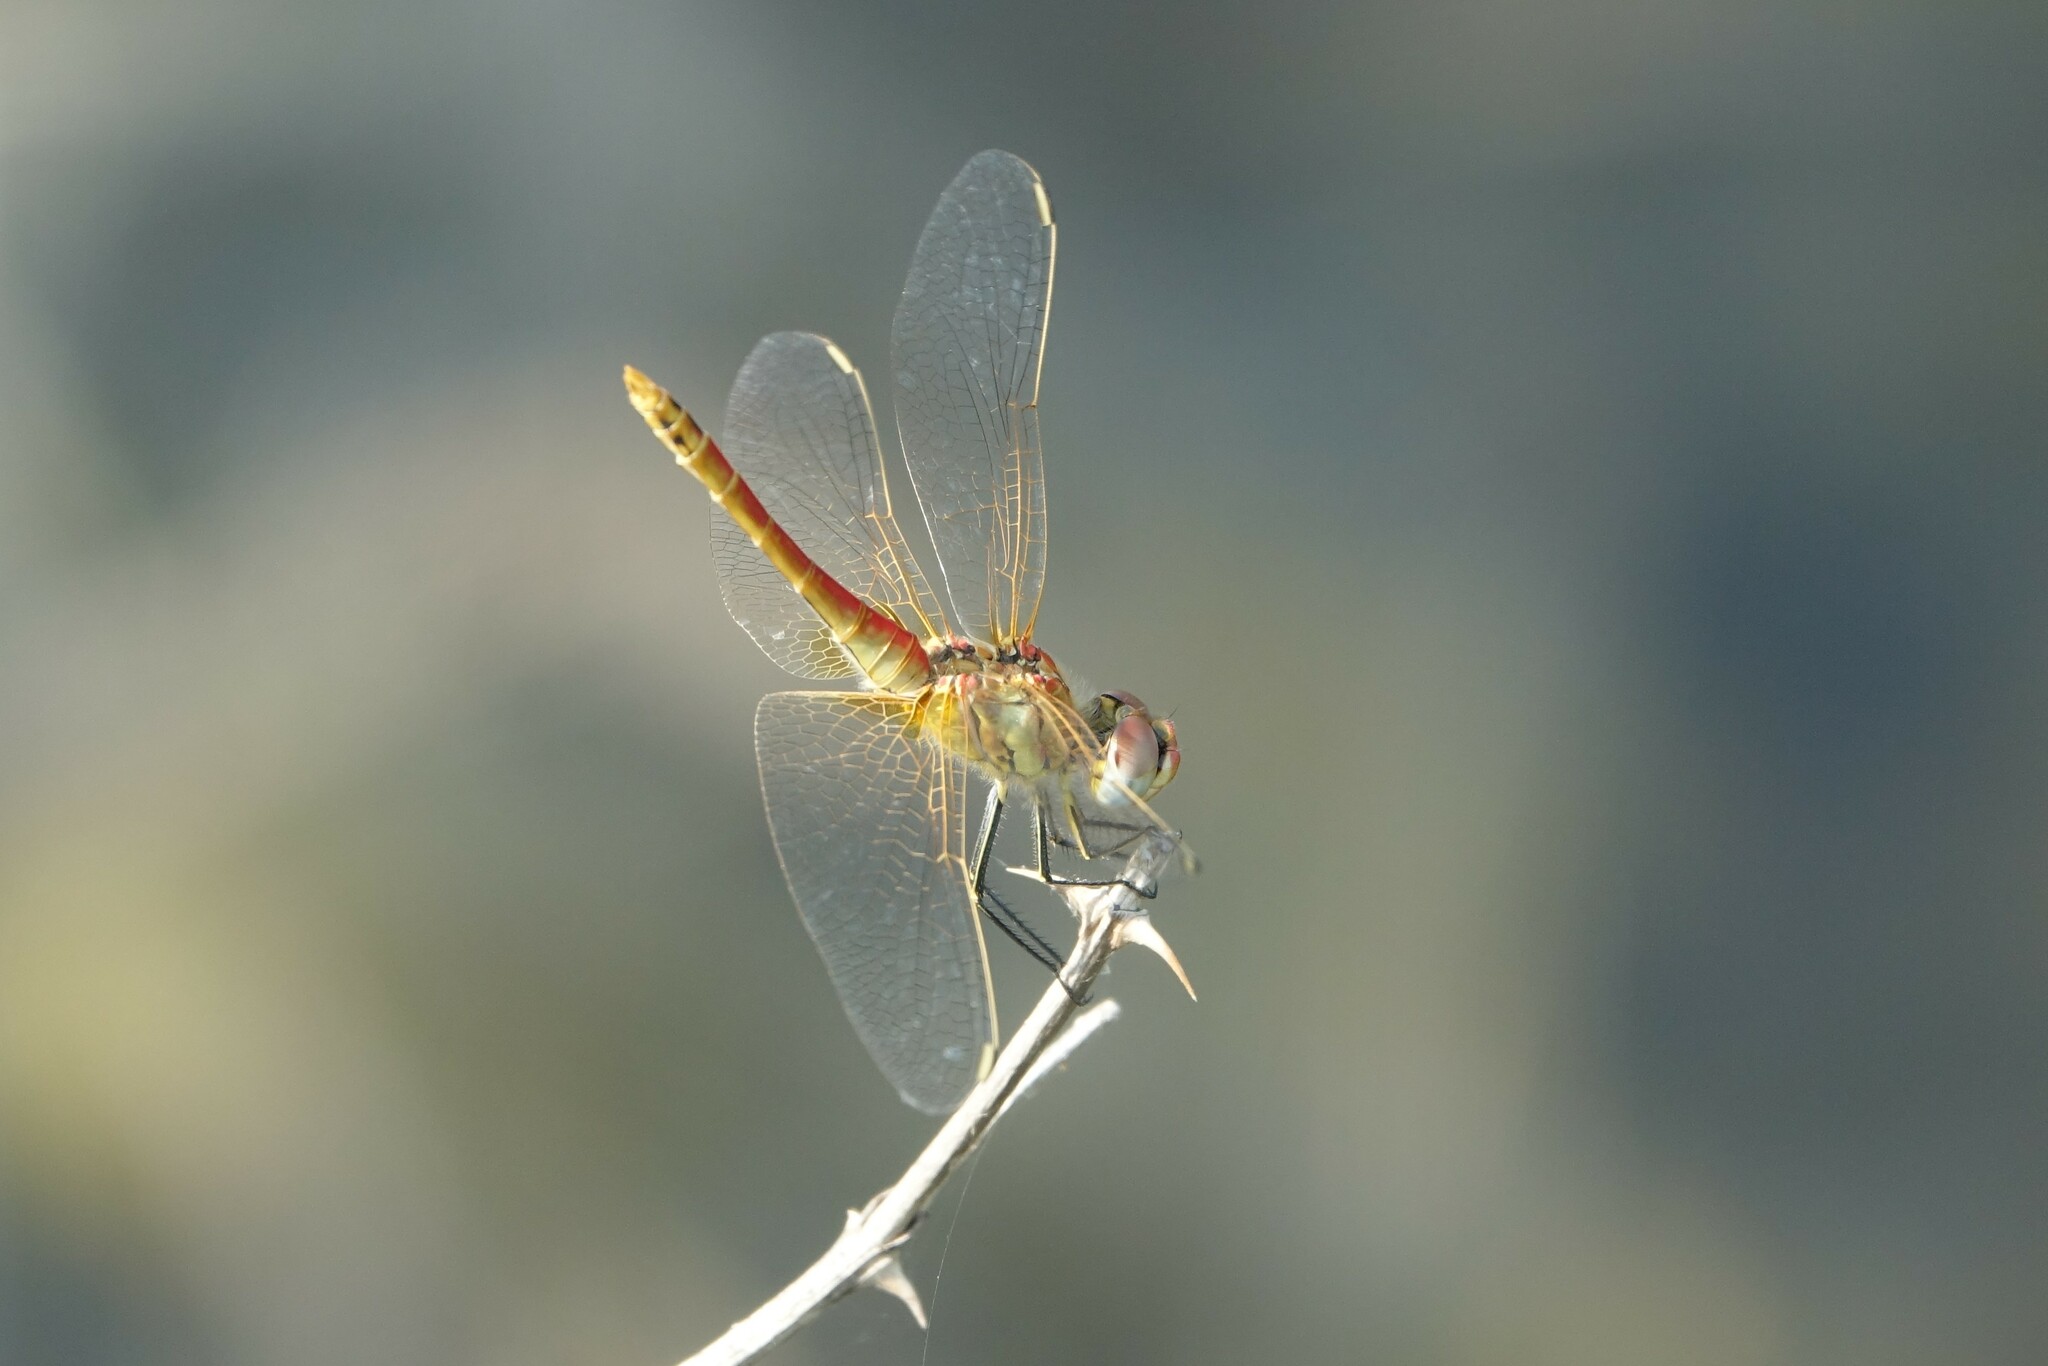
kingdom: Animalia
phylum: Arthropoda
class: Insecta
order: Odonata
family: Libellulidae
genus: Sympetrum
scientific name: Sympetrum fonscolombii
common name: Red-veined darter
